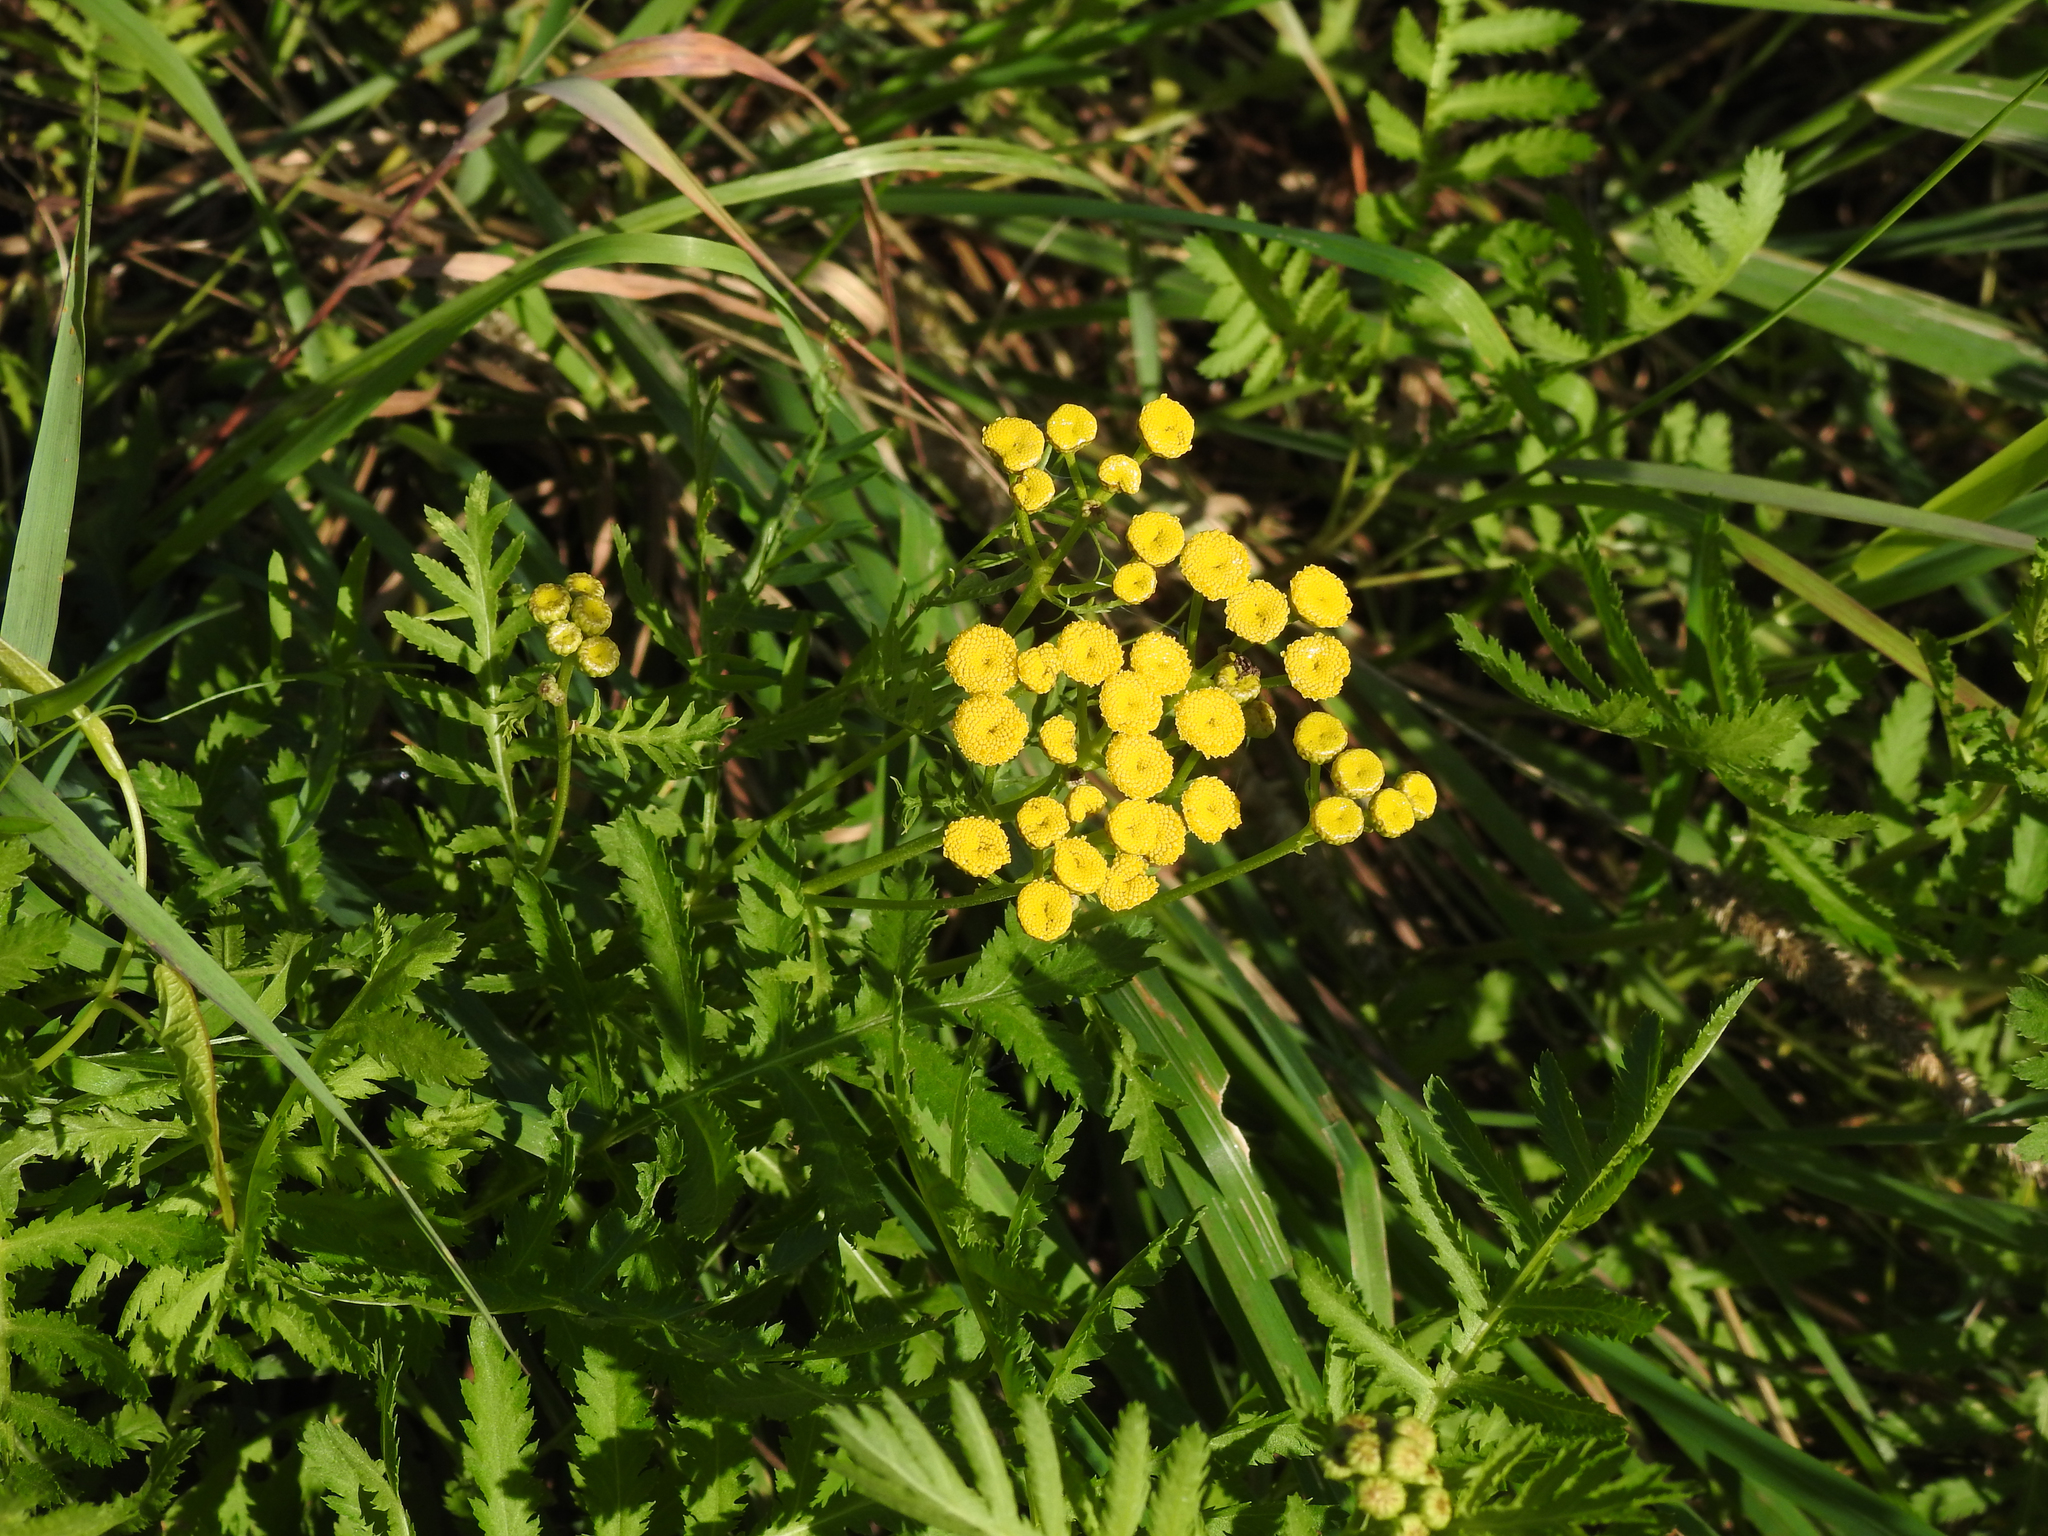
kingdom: Plantae
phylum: Tracheophyta
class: Magnoliopsida
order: Asterales
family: Asteraceae
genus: Tanacetum
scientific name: Tanacetum vulgare
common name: Common tansy
